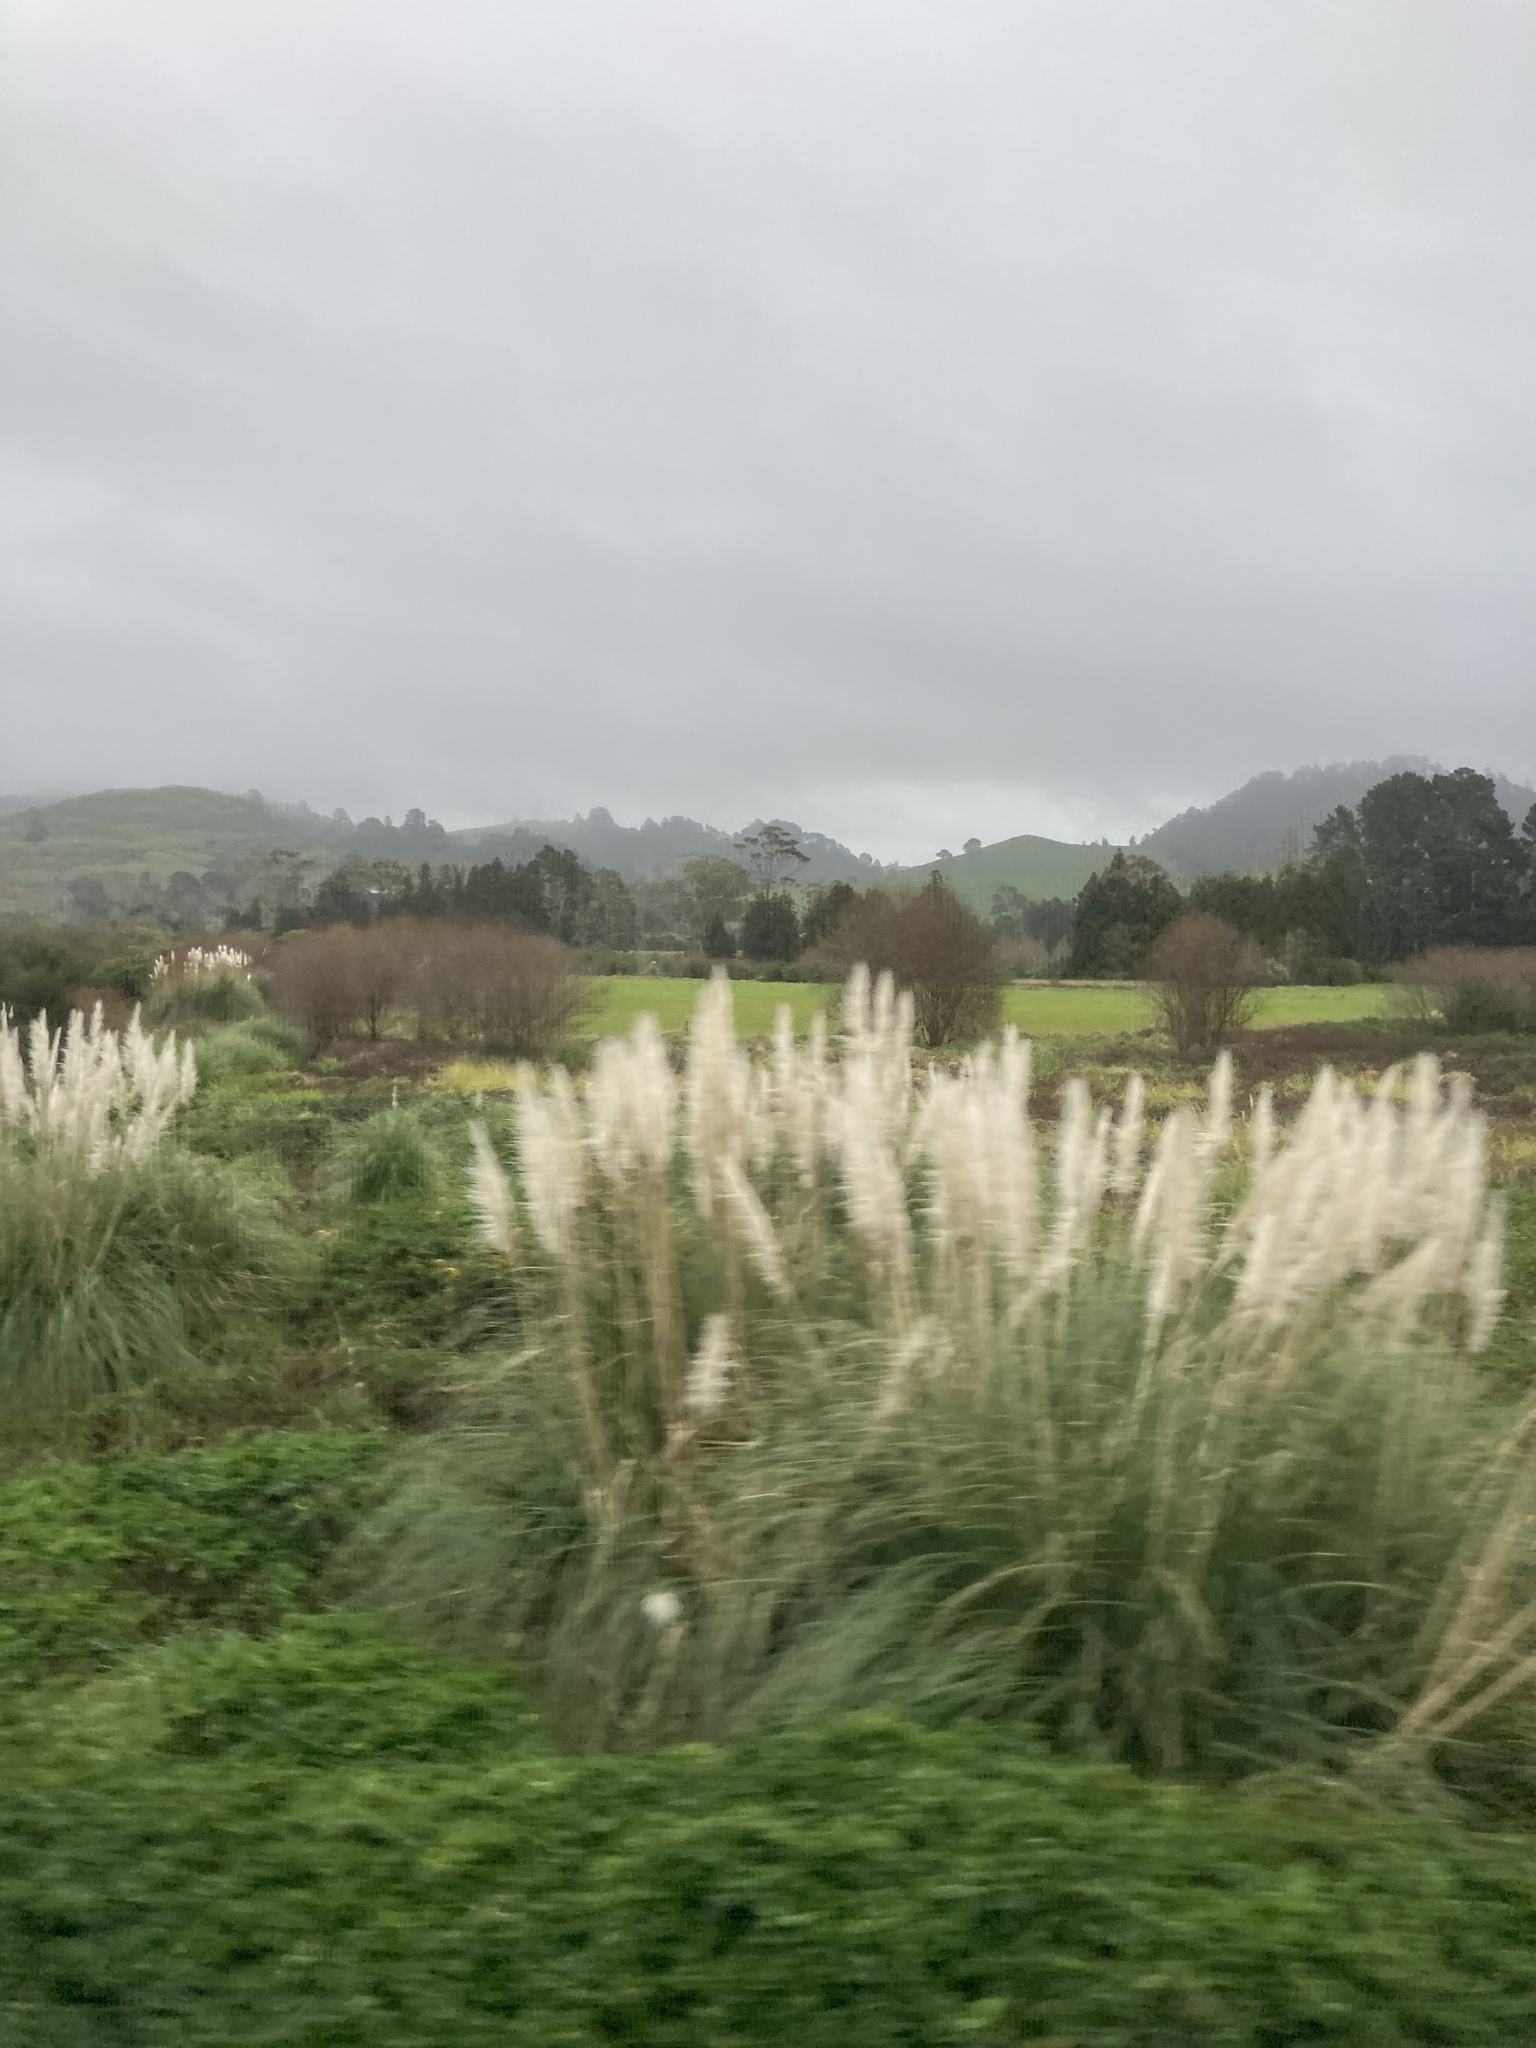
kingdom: Plantae
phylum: Tracheophyta
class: Liliopsida
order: Poales
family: Poaceae
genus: Cortaderia
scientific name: Cortaderia selloana
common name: Uruguayan pampas grass
